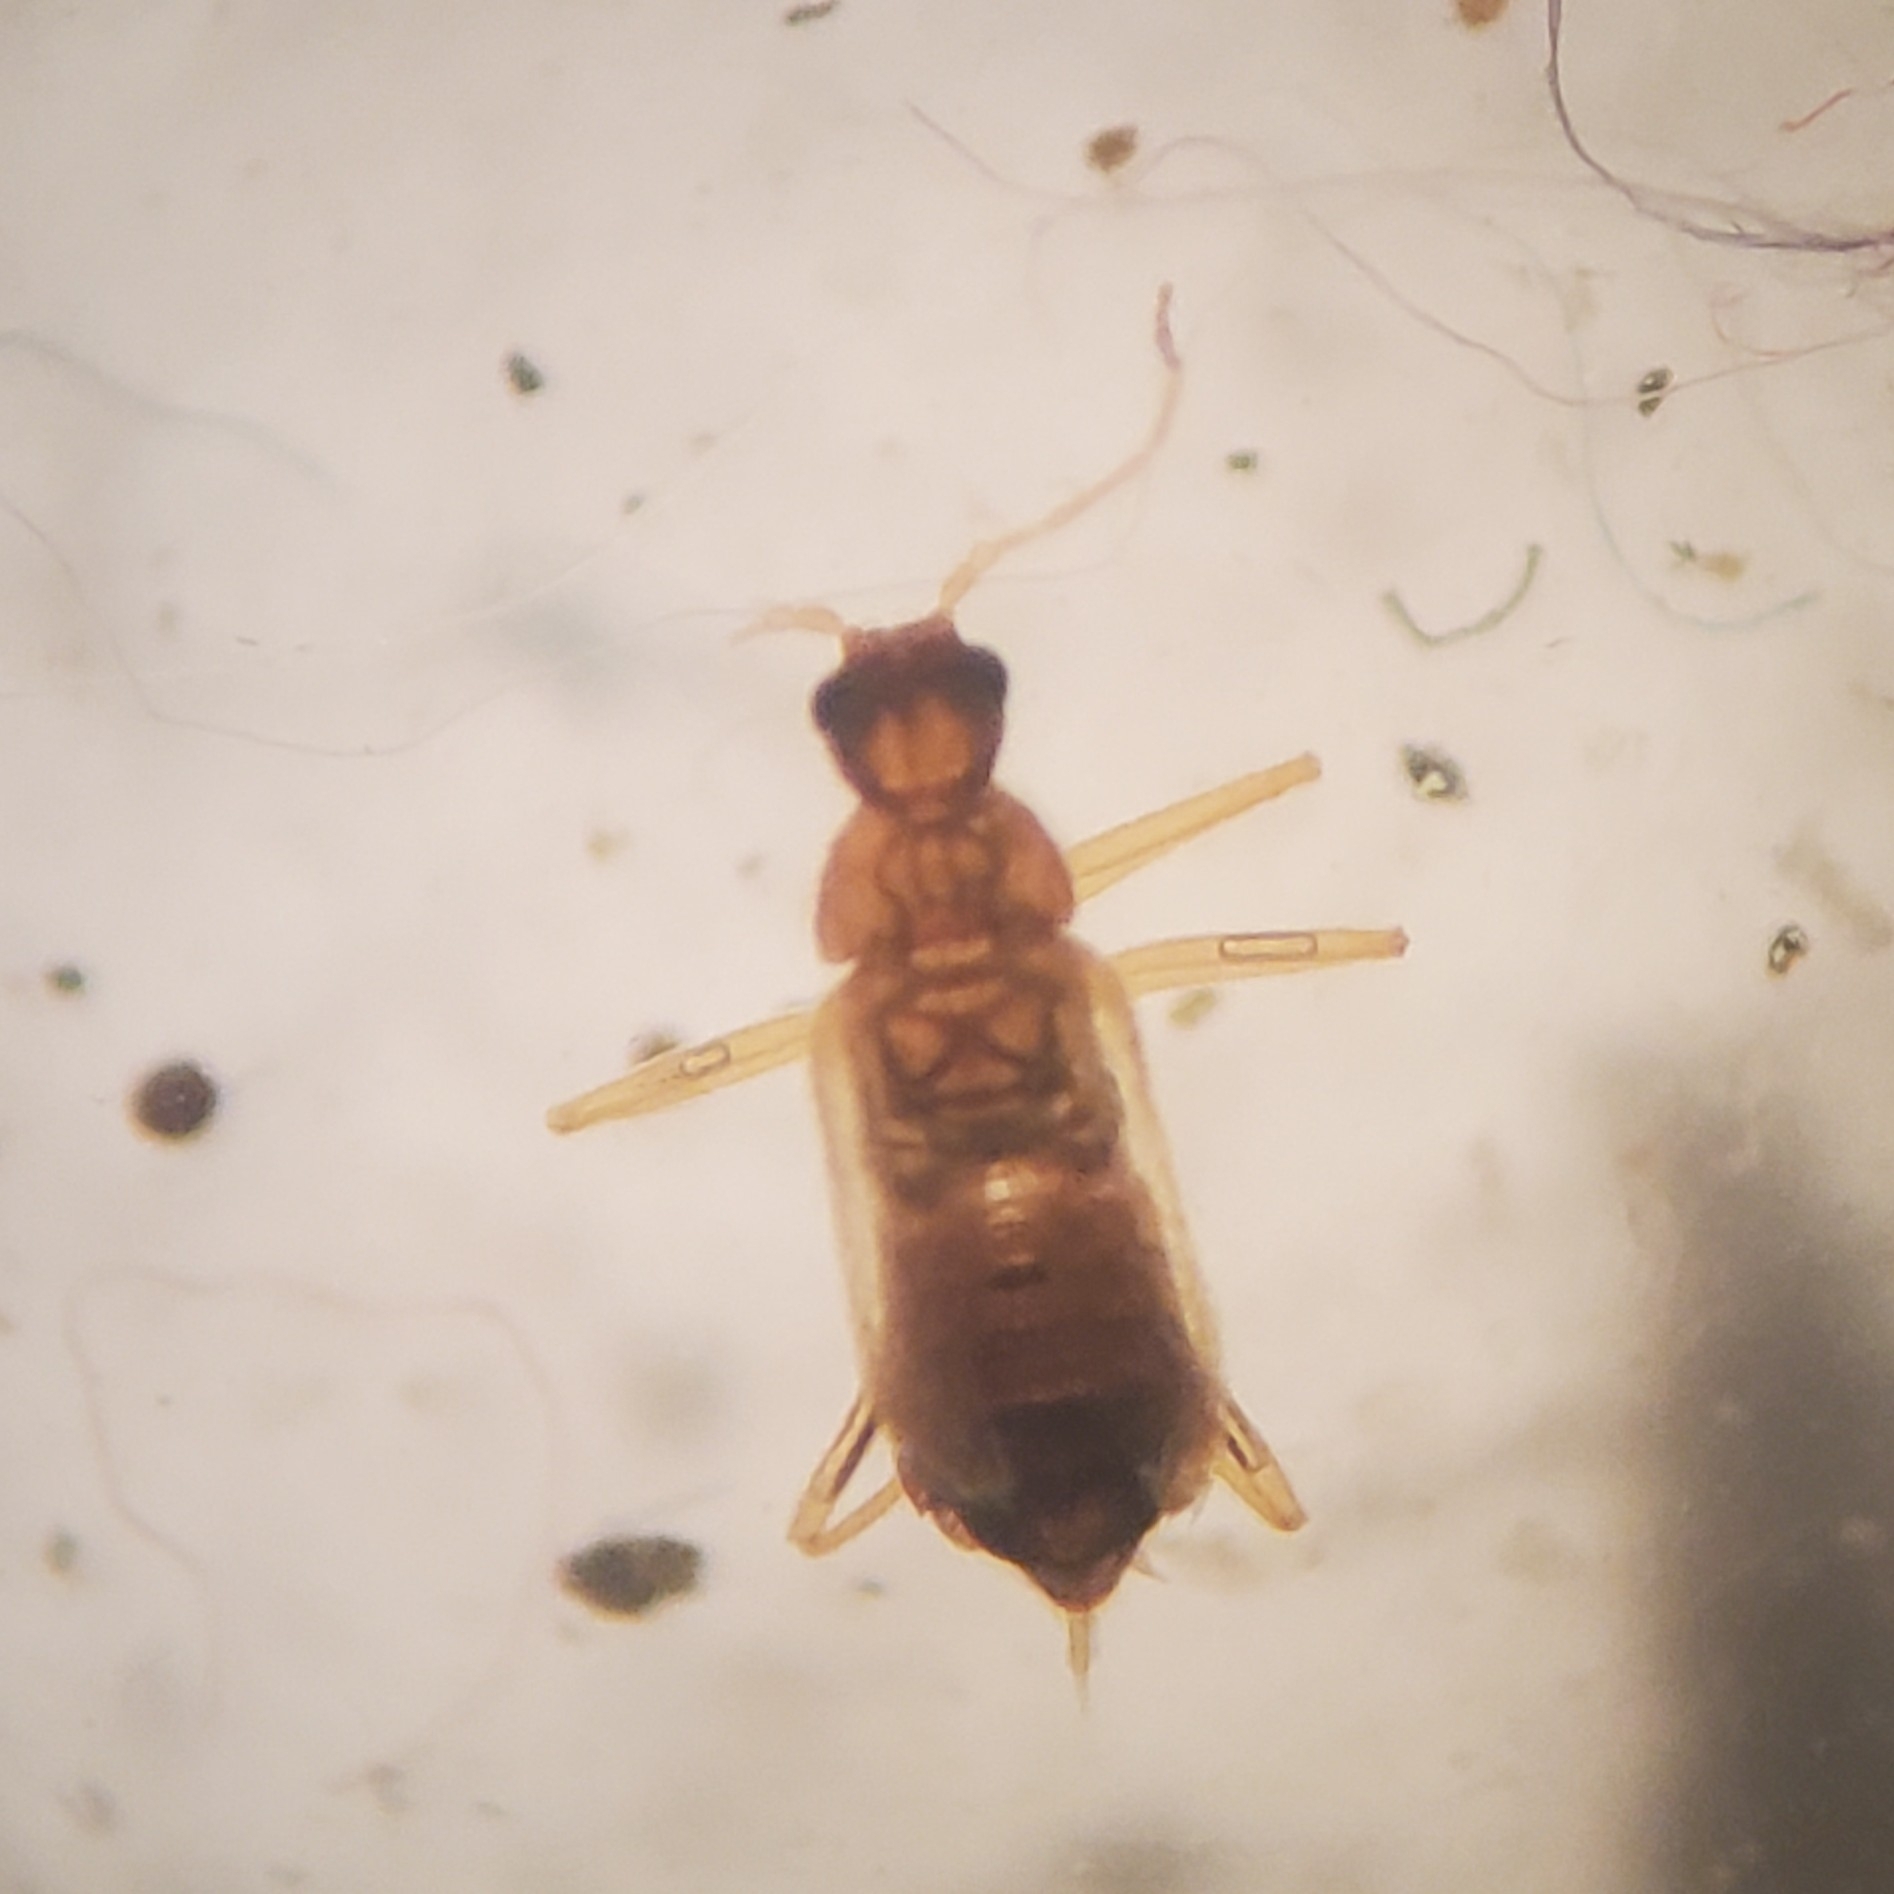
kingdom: Animalia
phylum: Arthropoda
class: Insecta
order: Coleoptera
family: Dermestidae
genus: Thylodrias
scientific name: Thylodrias contractus
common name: Odd beetle
